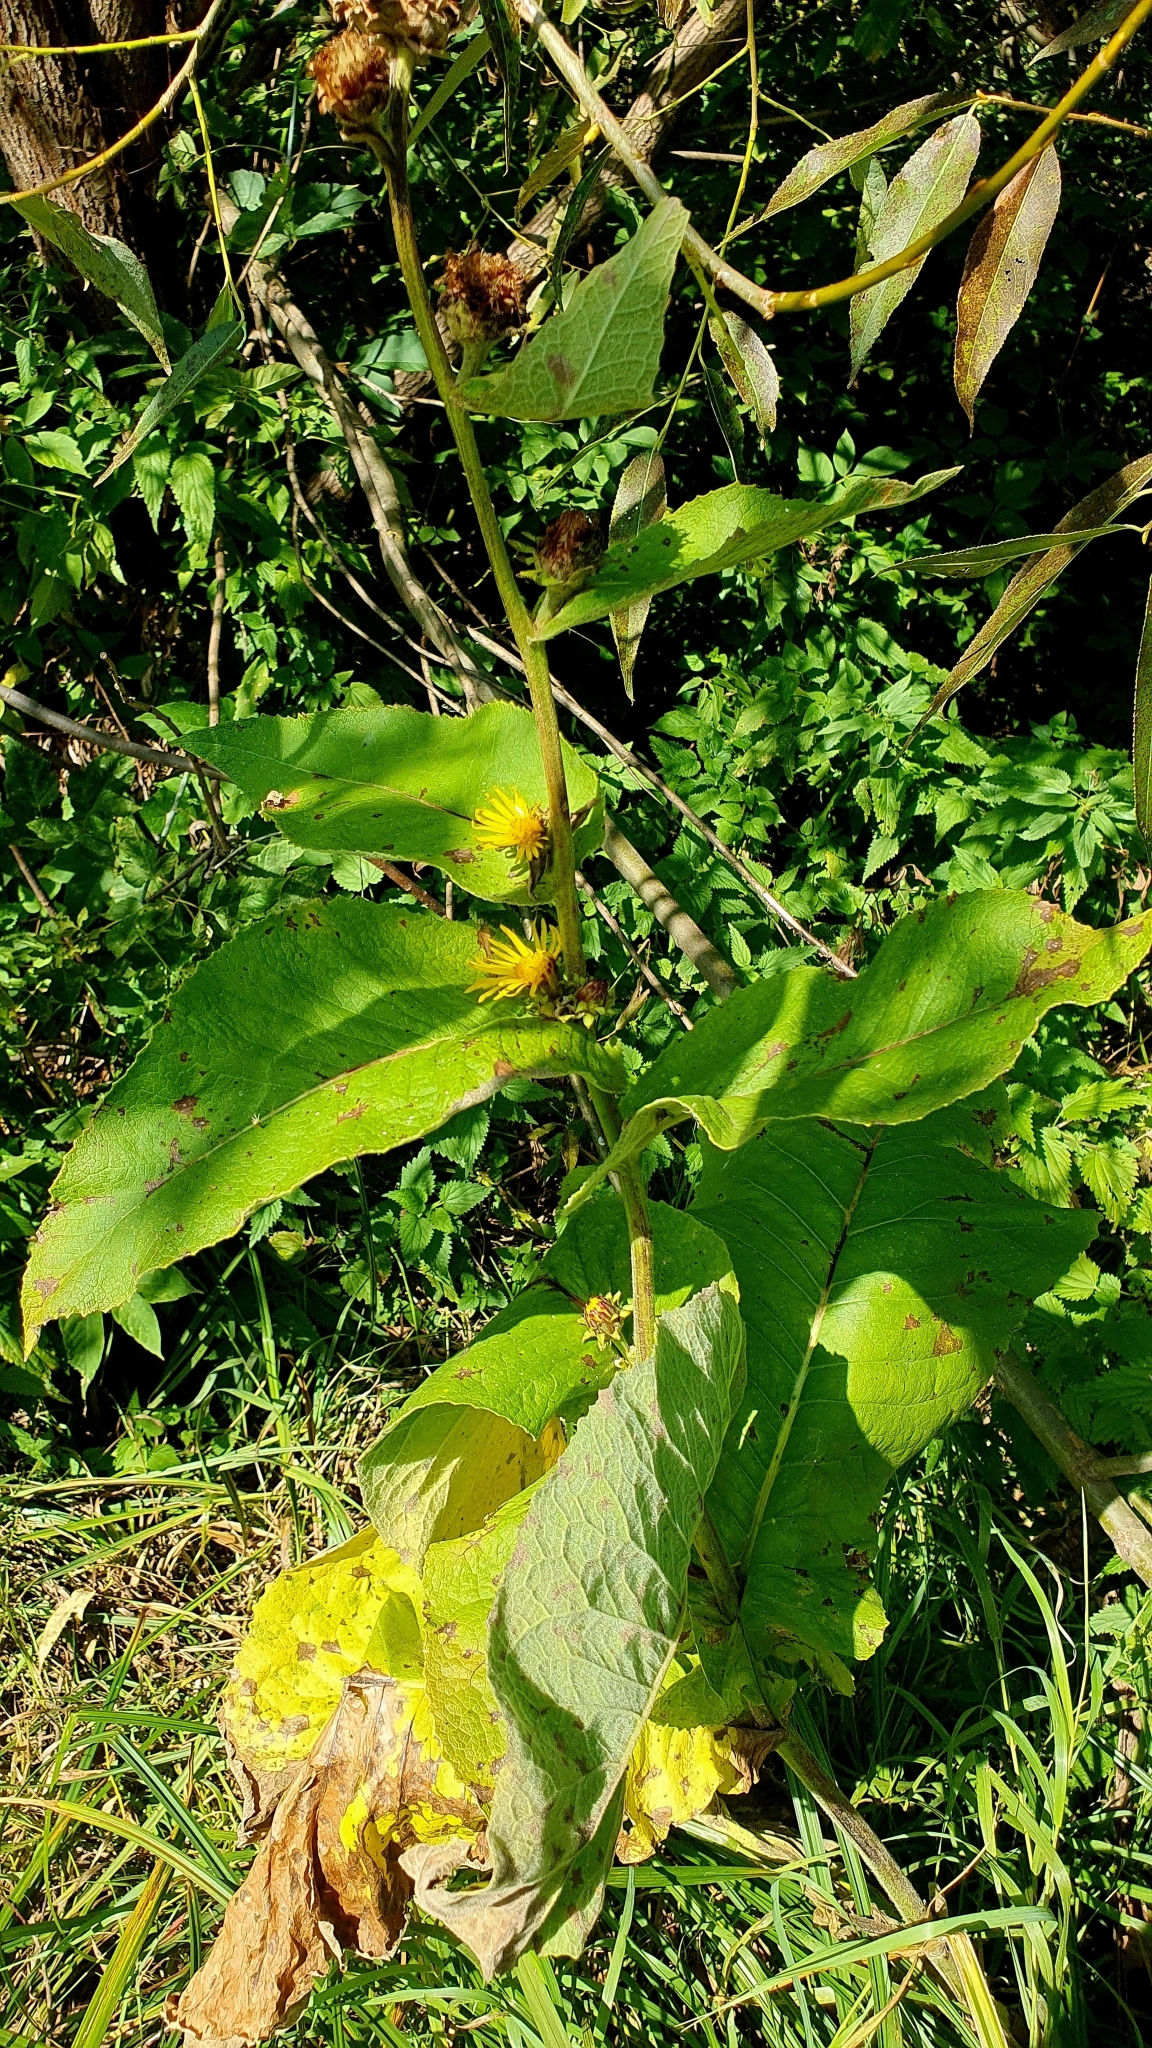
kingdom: Plantae
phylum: Tracheophyta
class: Magnoliopsida
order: Asterales
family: Asteraceae
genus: Inula
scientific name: Inula helenium
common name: Elecampane
